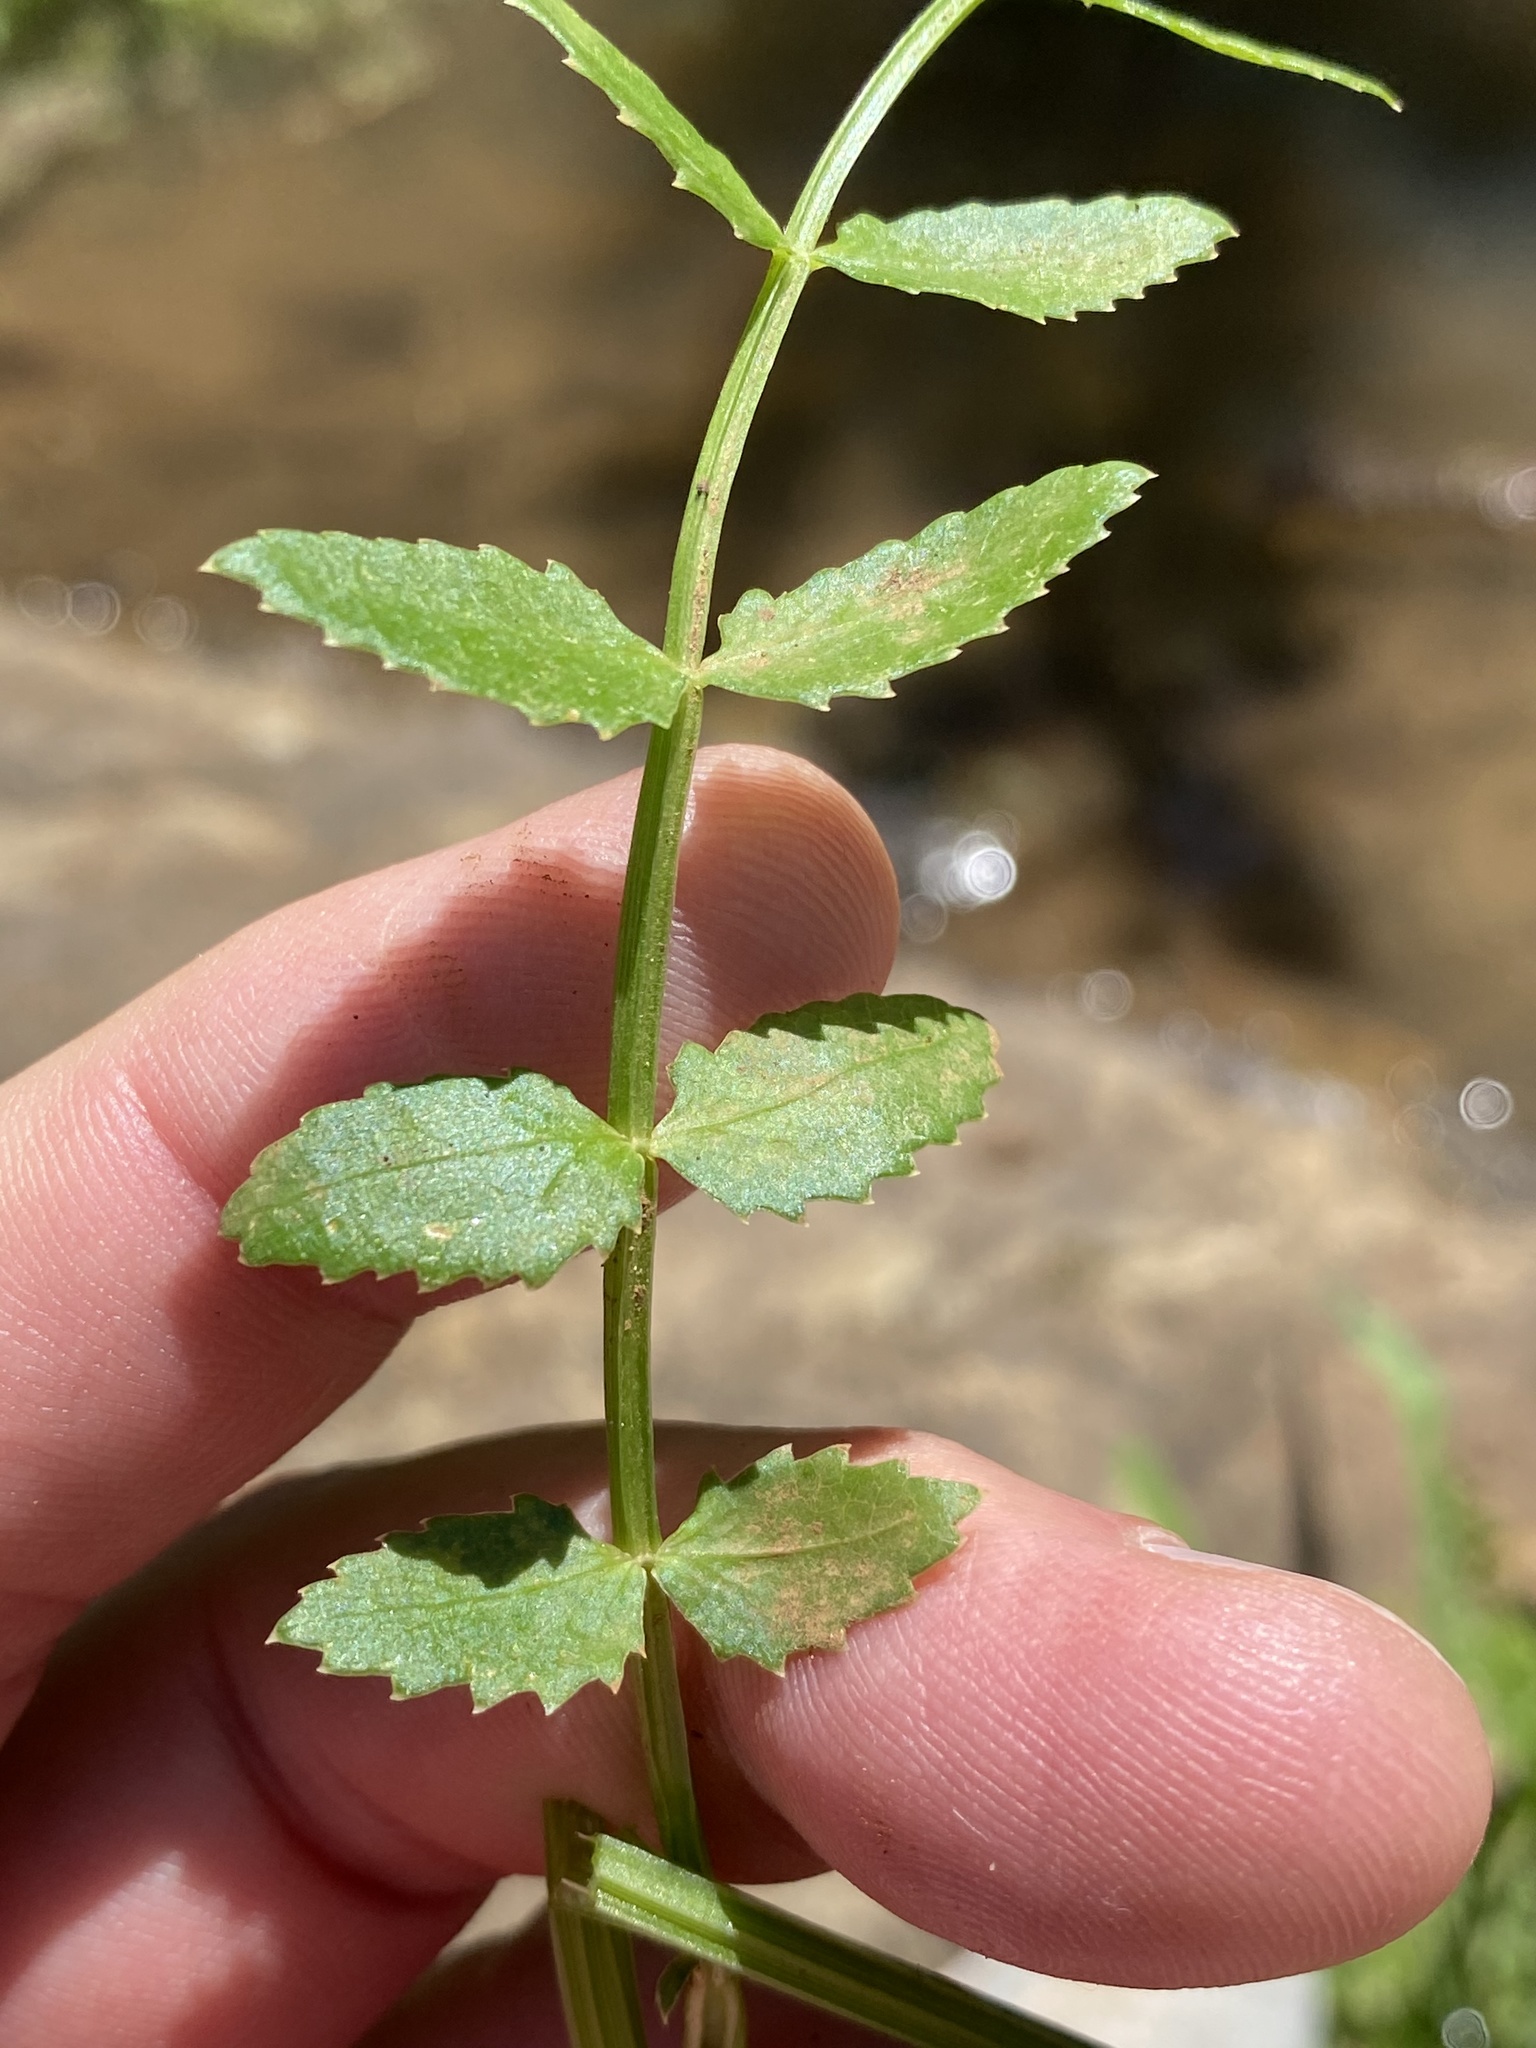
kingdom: Plantae
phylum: Tracheophyta
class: Magnoliopsida
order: Apiales
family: Apiaceae
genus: Berula
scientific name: Berula thunbergii
